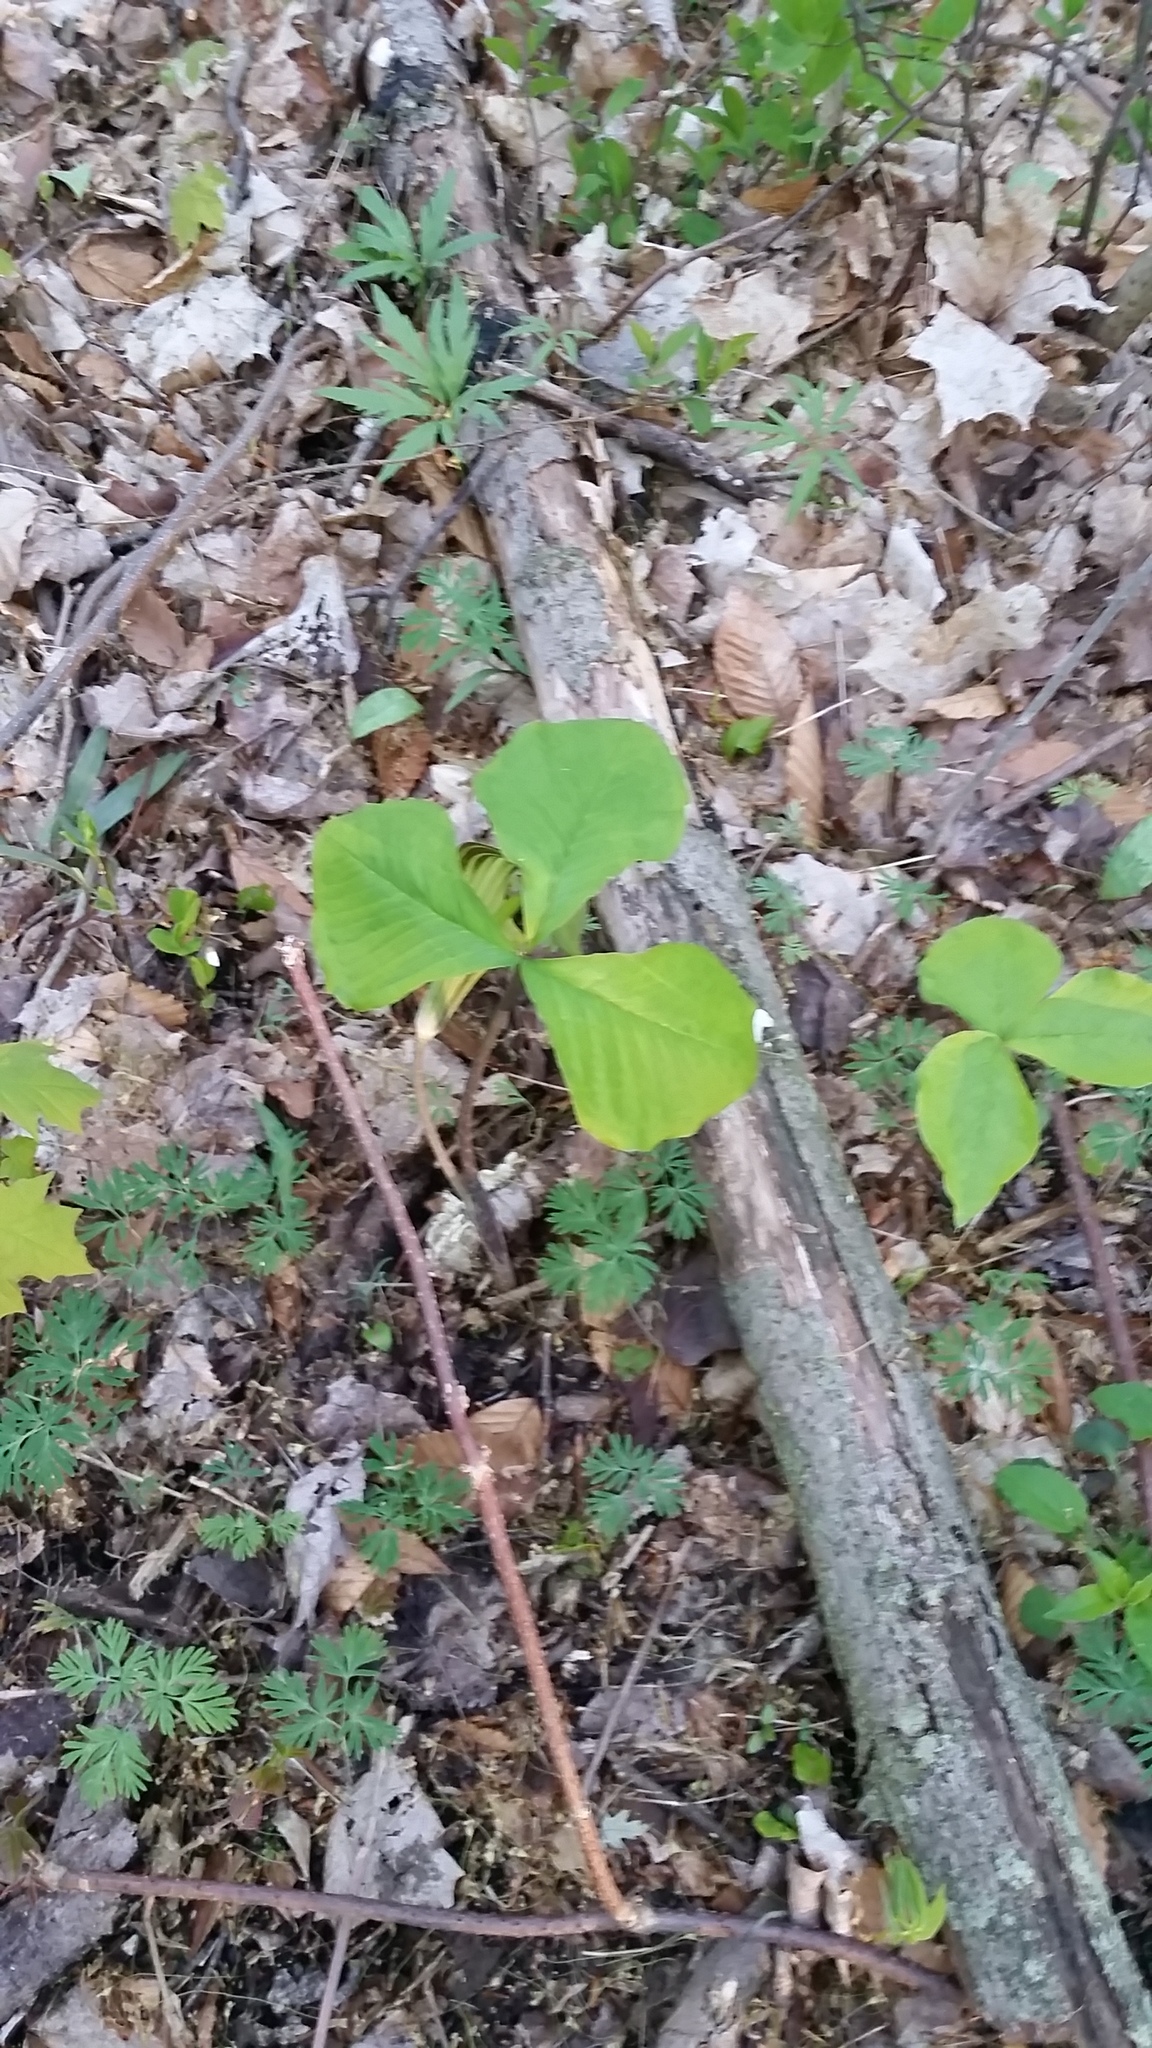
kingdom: Plantae
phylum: Tracheophyta
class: Liliopsida
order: Alismatales
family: Araceae
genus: Arisaema
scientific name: Arisaema triphyllum
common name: Jack-in-the-pulpit
